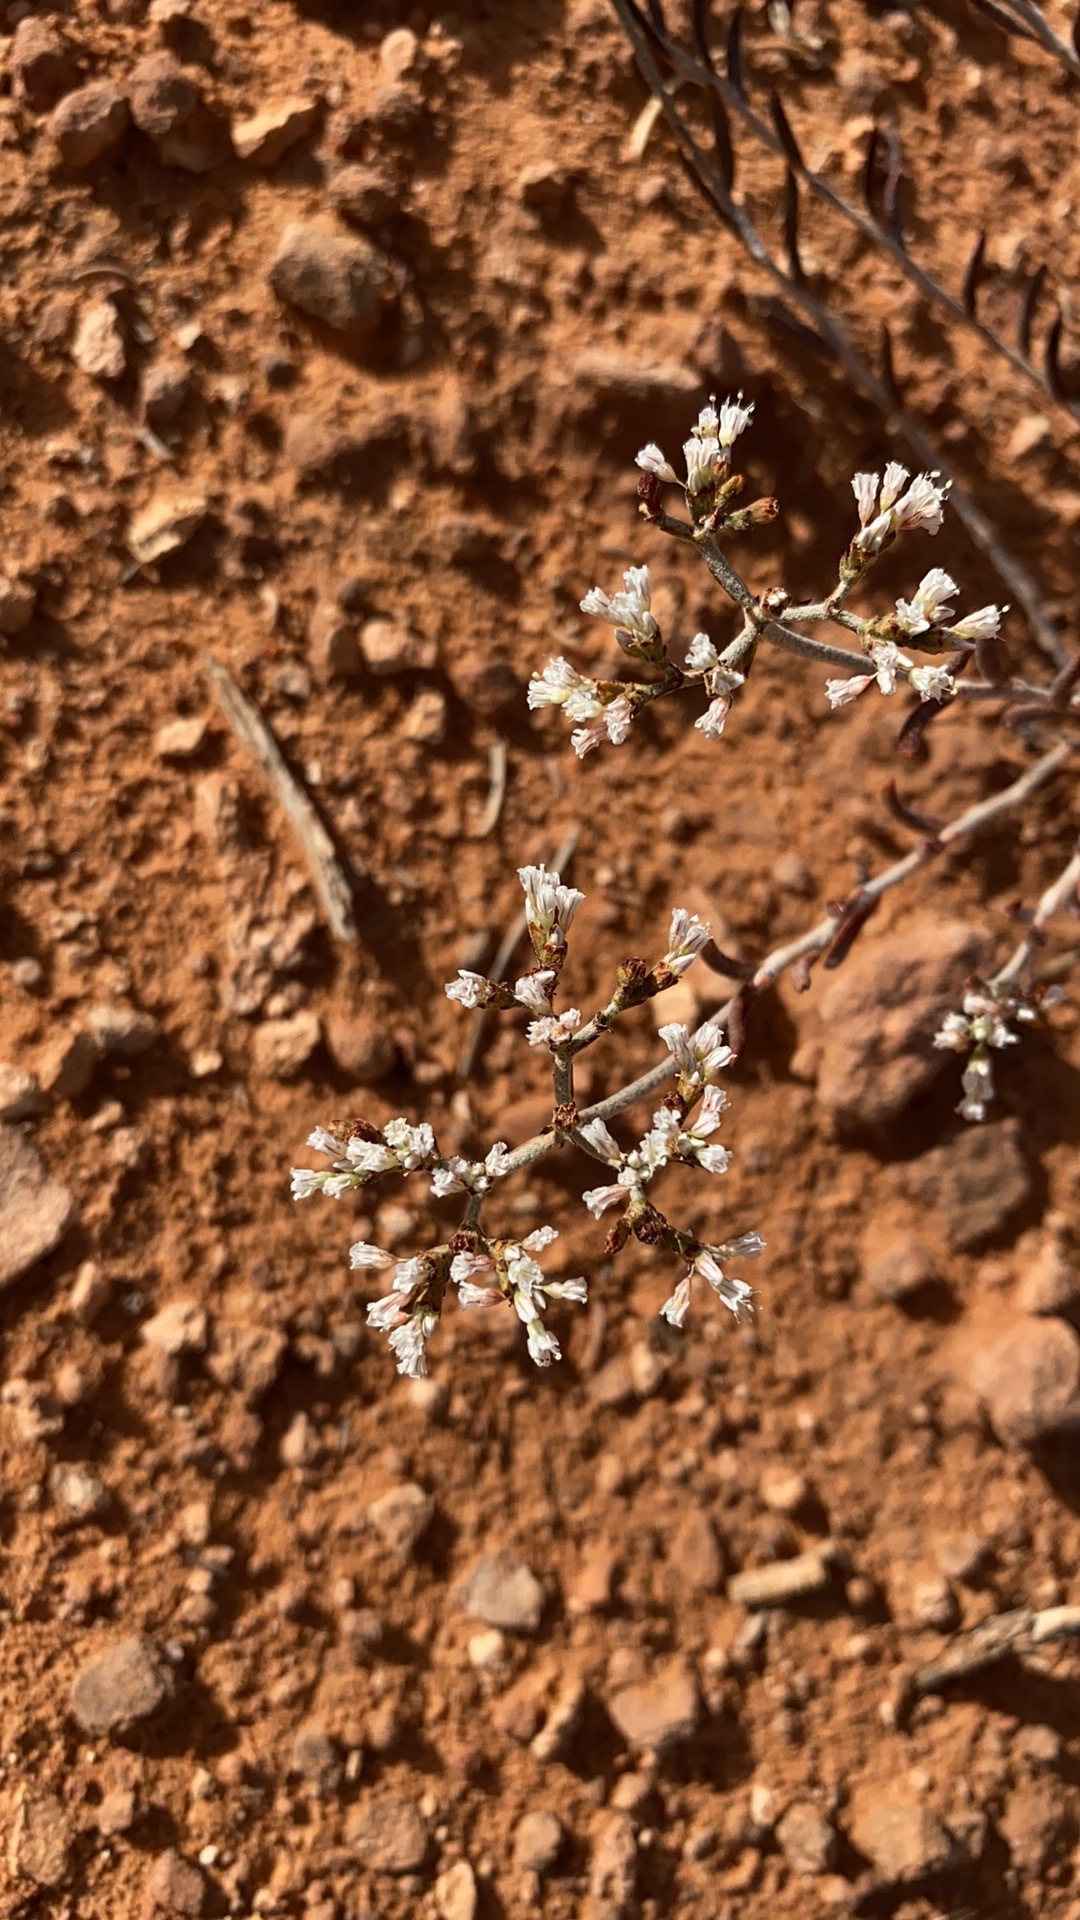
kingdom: Plantae
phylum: Tracheophyta
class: Magnoliopsida
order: Caryophyllales
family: Polygonaceae
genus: Eriogonum
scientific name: Eriogonum microtheca
